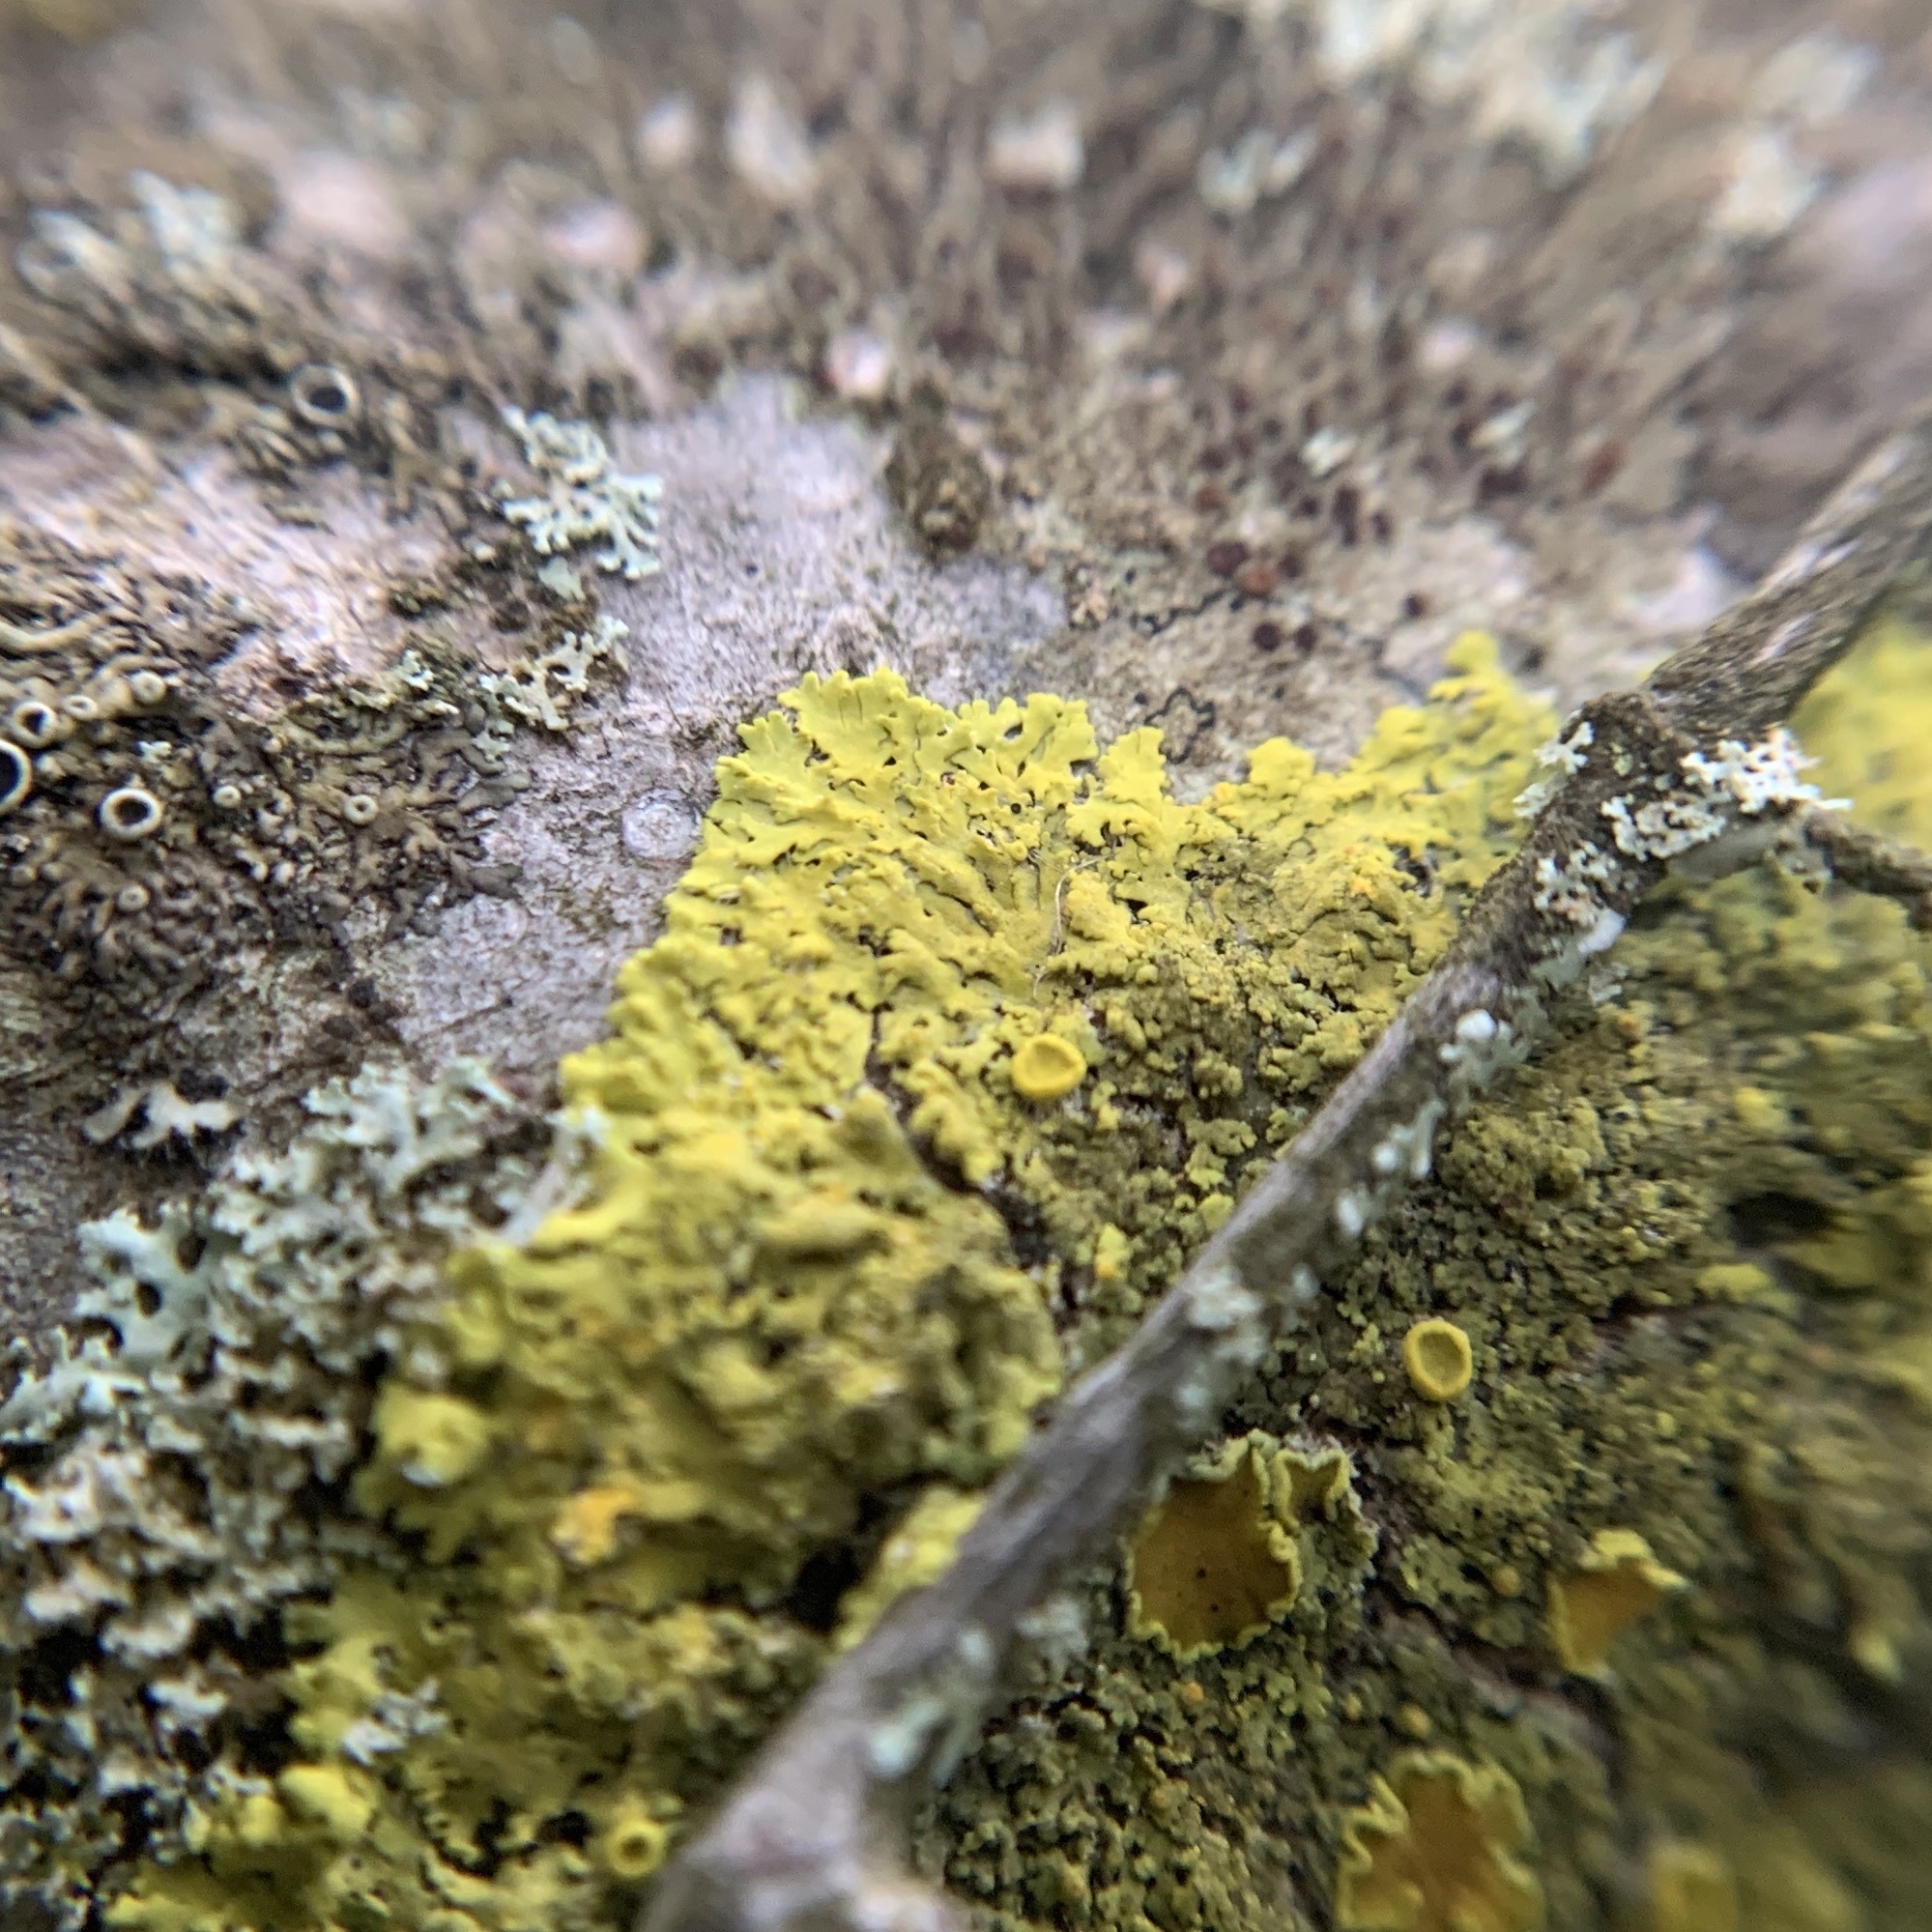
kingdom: Fungi
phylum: Ascomycota
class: Candelariomycetes
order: Candelariales
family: Candelariaceae
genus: Candelaria
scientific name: Candelaria fibrosa
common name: Fringed candleflame lichen
